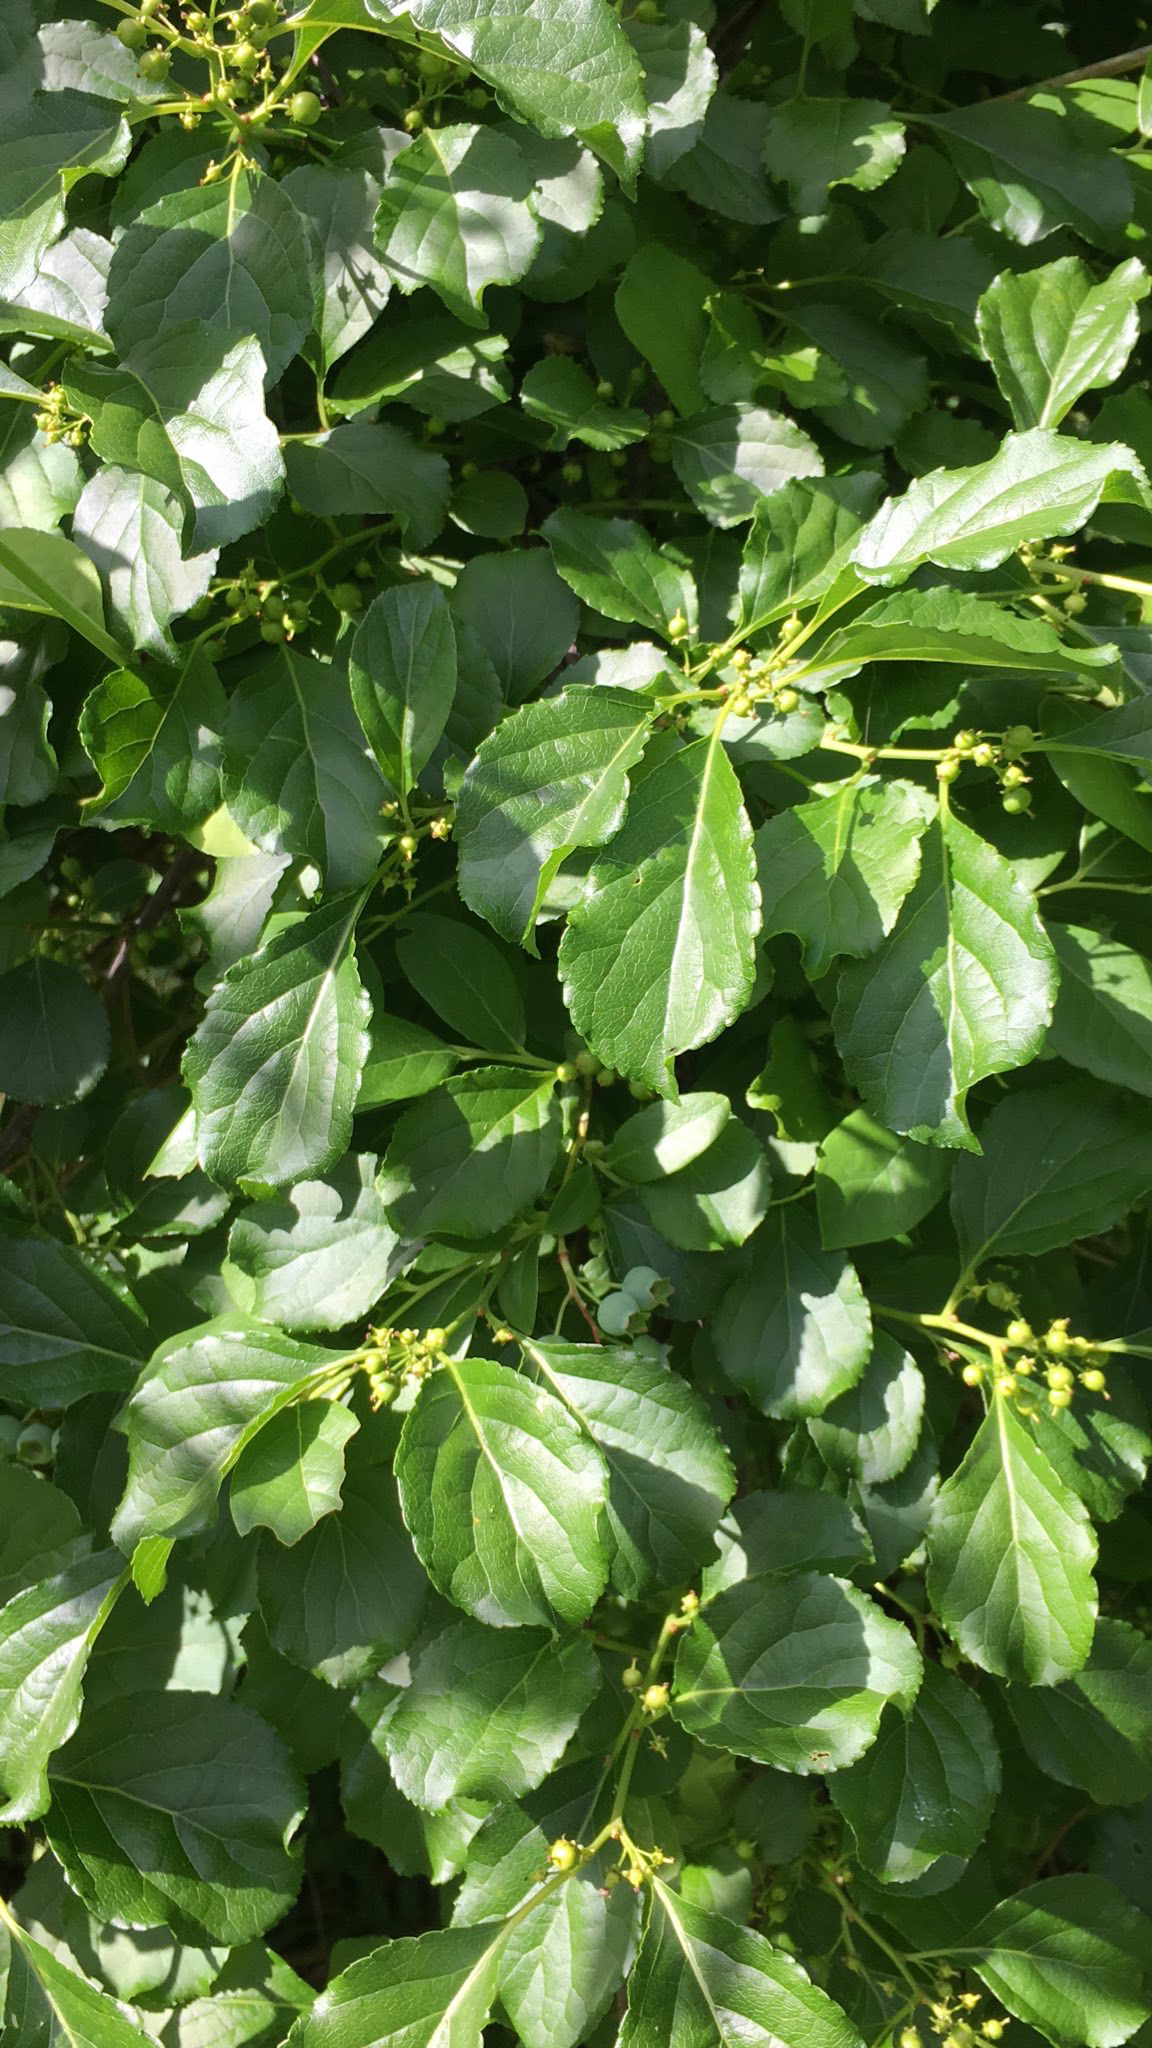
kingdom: Plantae
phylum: Tracheophyta
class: Magnoliopsida
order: Celastrales
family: Celastraceae
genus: Celastrus
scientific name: Celastrus orbiculatus
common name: Oriental bittersweet
